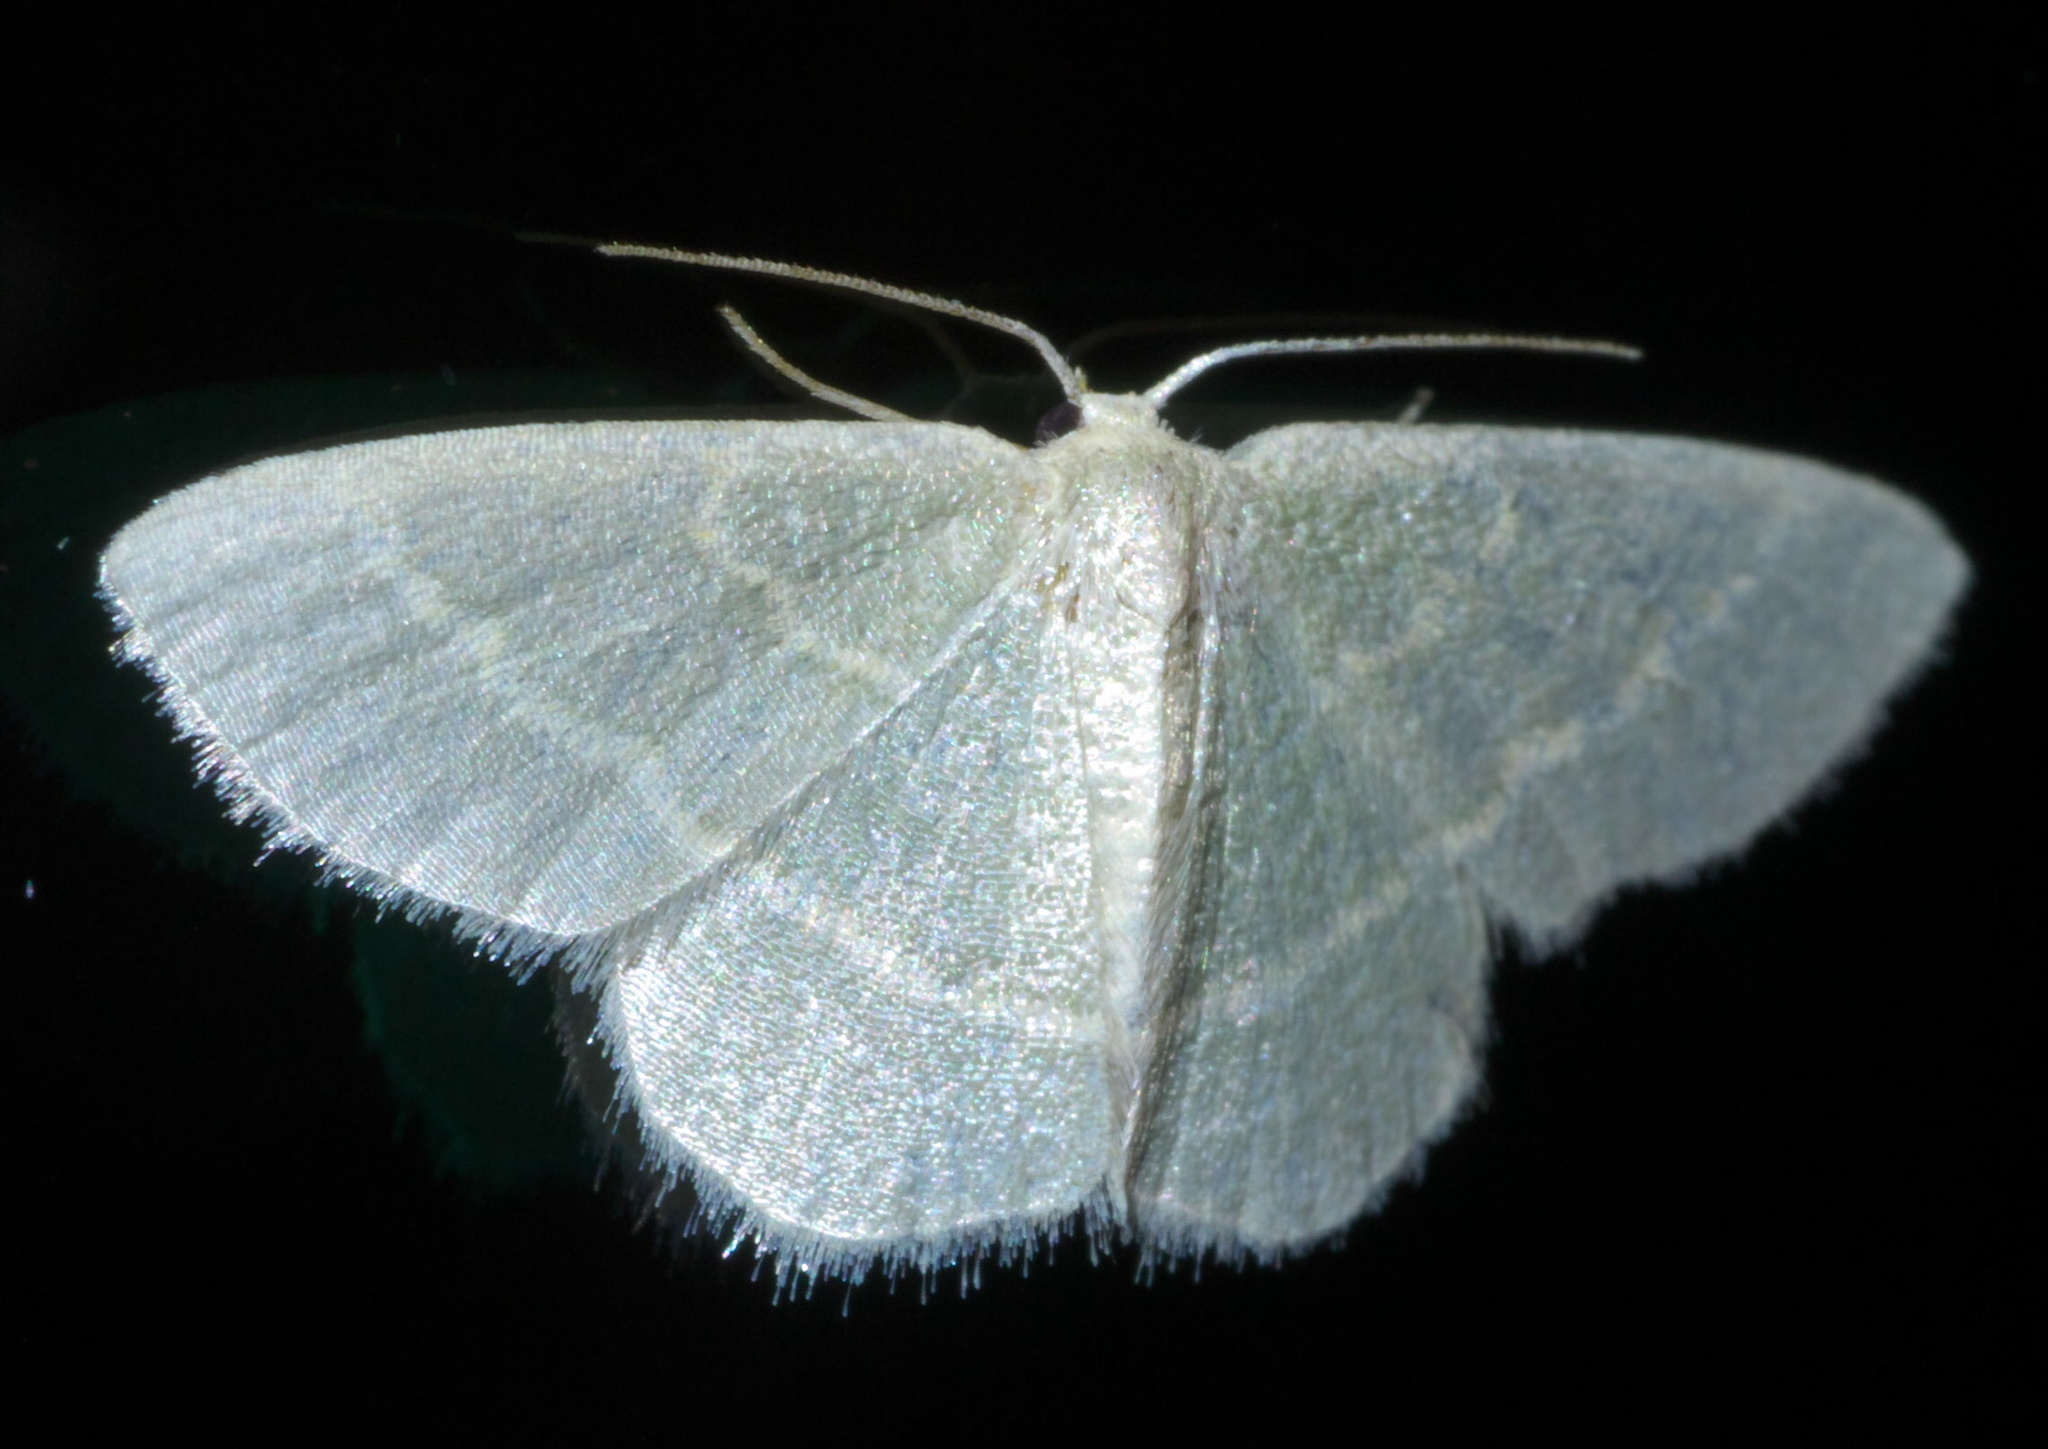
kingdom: Animalia
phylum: Arthropoda
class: Insecta
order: Lepidoptera
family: Geometridae
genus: Chlorochlamys
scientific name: Chlorochlamys chloroleucaria
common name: Blackberry looper
